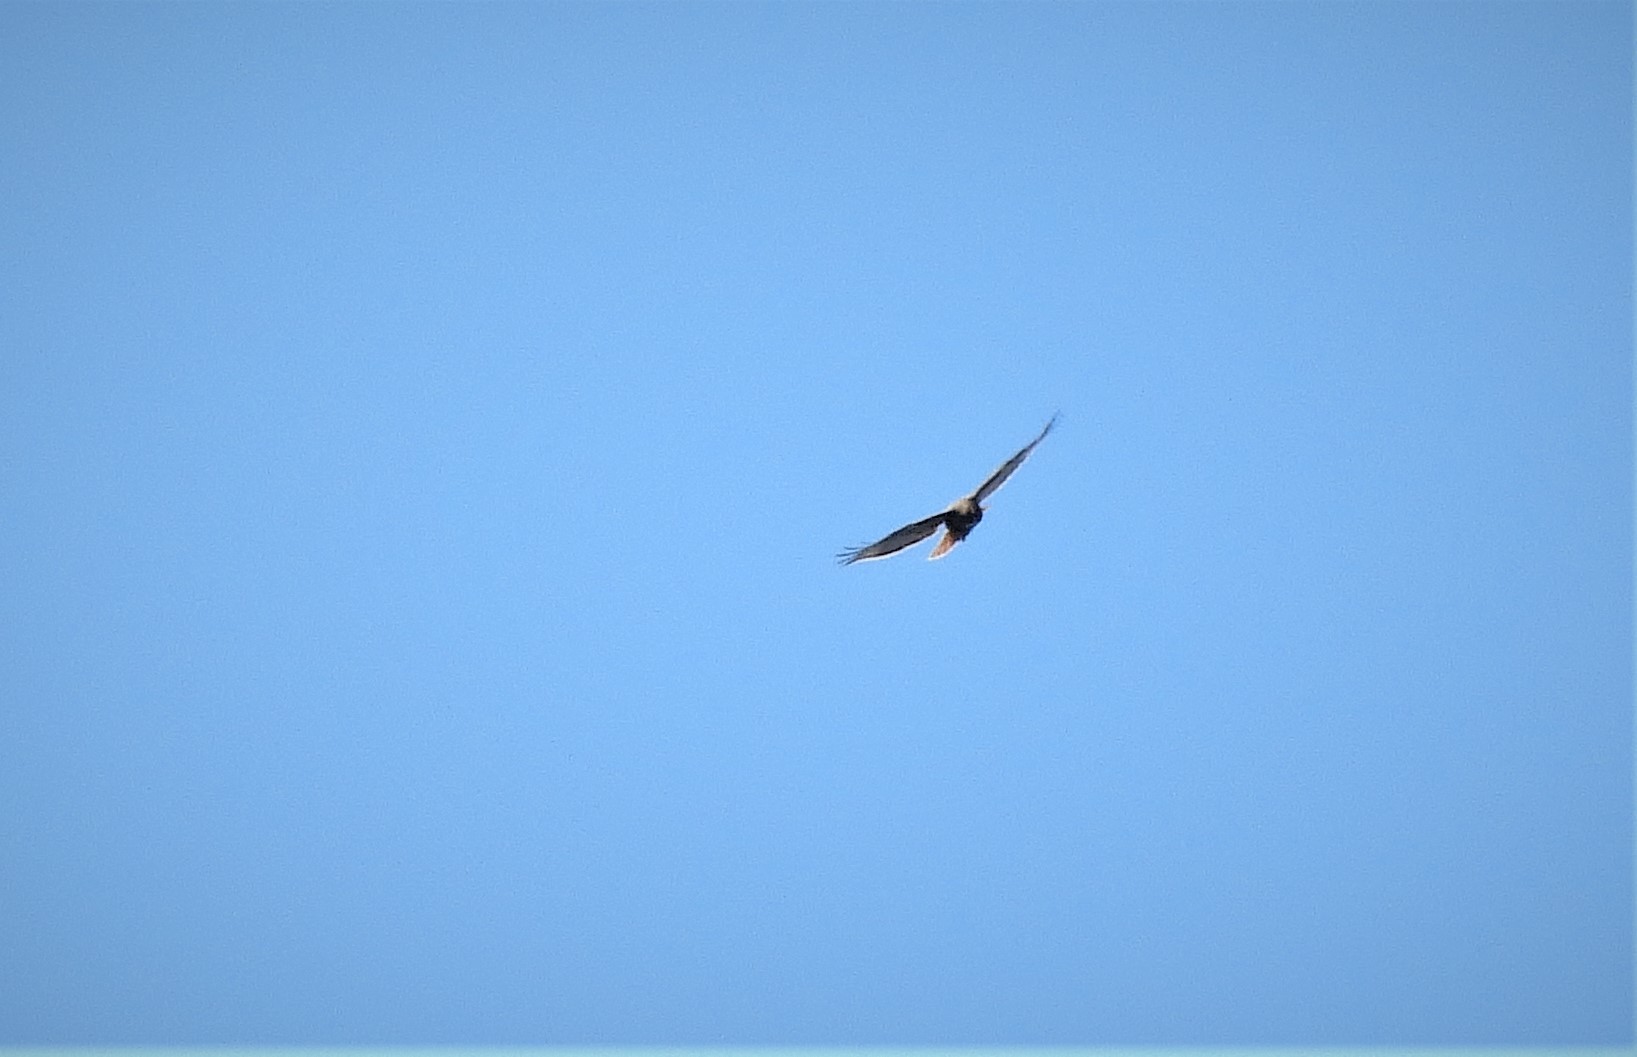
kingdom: Animalia
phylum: Chordata
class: Aves
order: Accipitriformes
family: Accipitridae
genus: Buteo
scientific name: Buteo jamaicensis
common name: Red-tailed hawk
